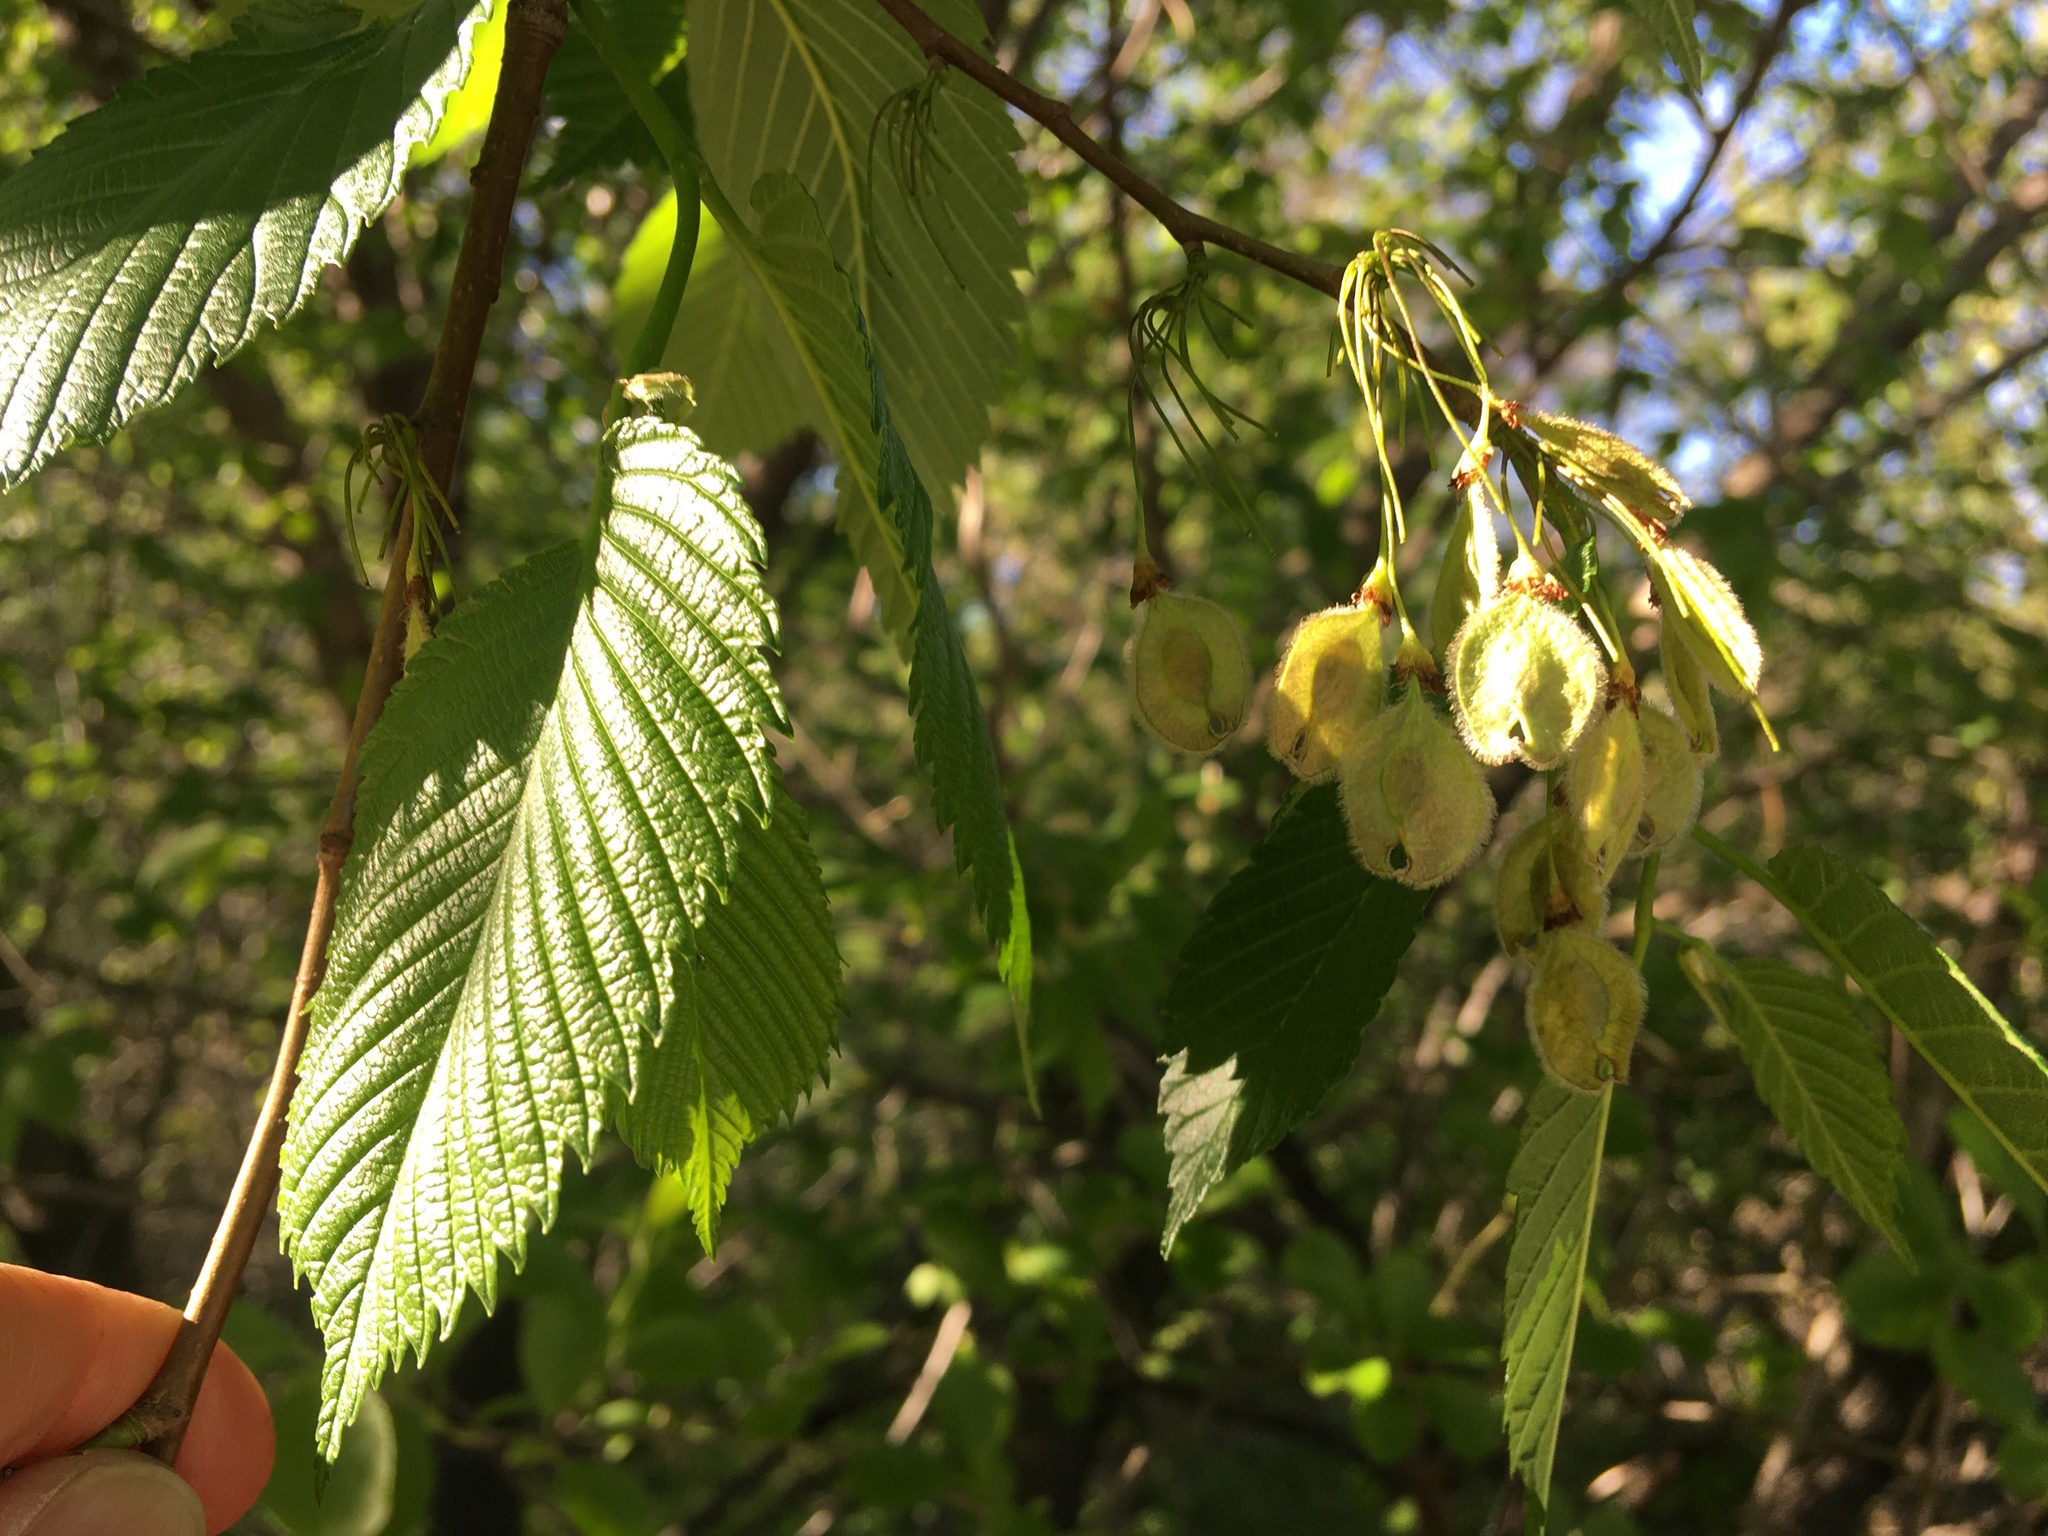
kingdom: Plantae
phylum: Tracheophyta
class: Magnoliopsida
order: Rosales
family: Ulmaceae
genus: Ulmus
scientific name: Ulmus americana
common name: American elm
